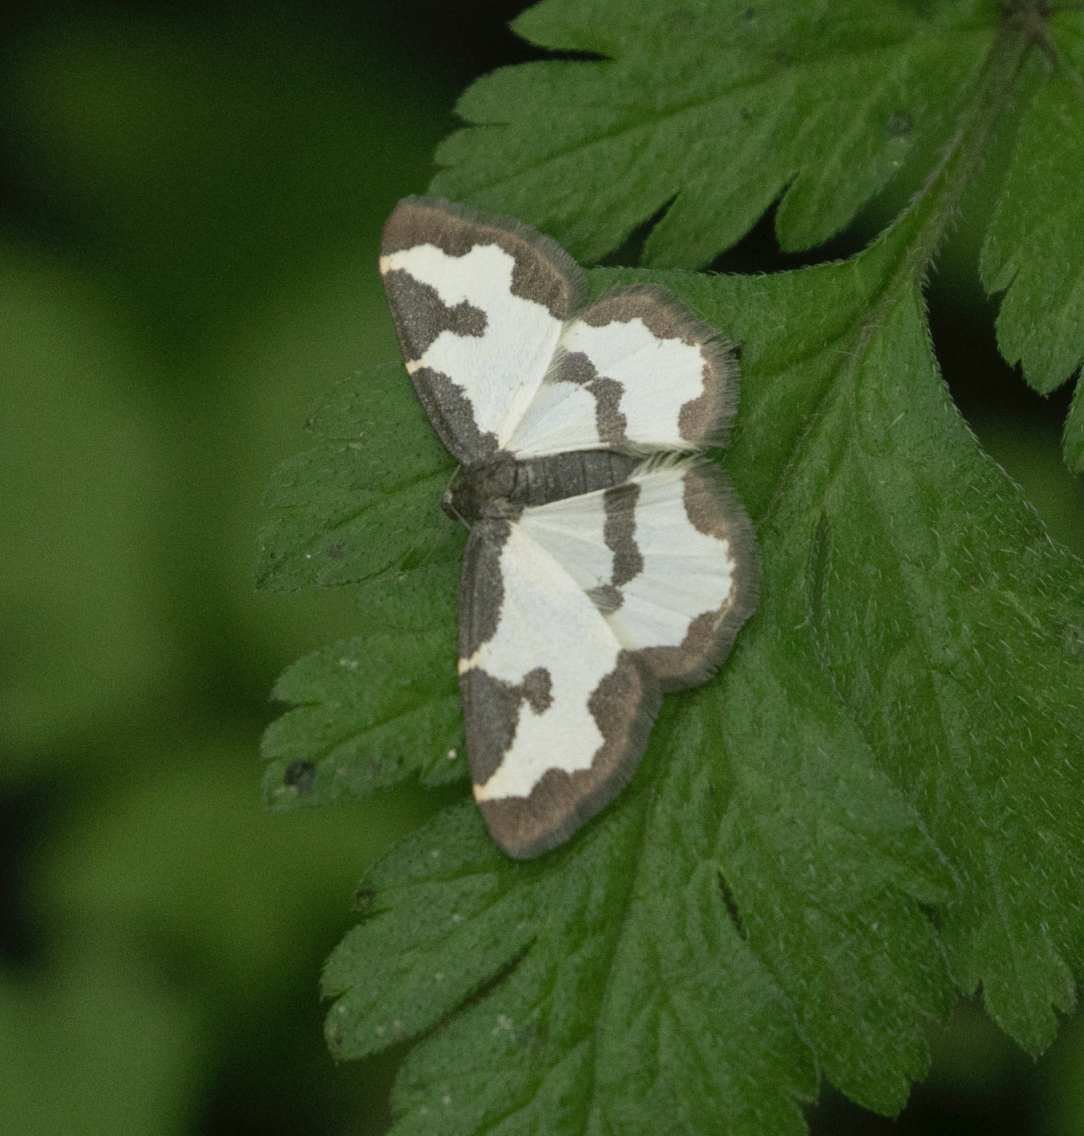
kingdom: Animalia
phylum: Arthropoda
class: Insecta
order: Lepidoptera
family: Geometridae
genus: Lomaspilis
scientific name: Lomaspilis marginata
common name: Clouded border
